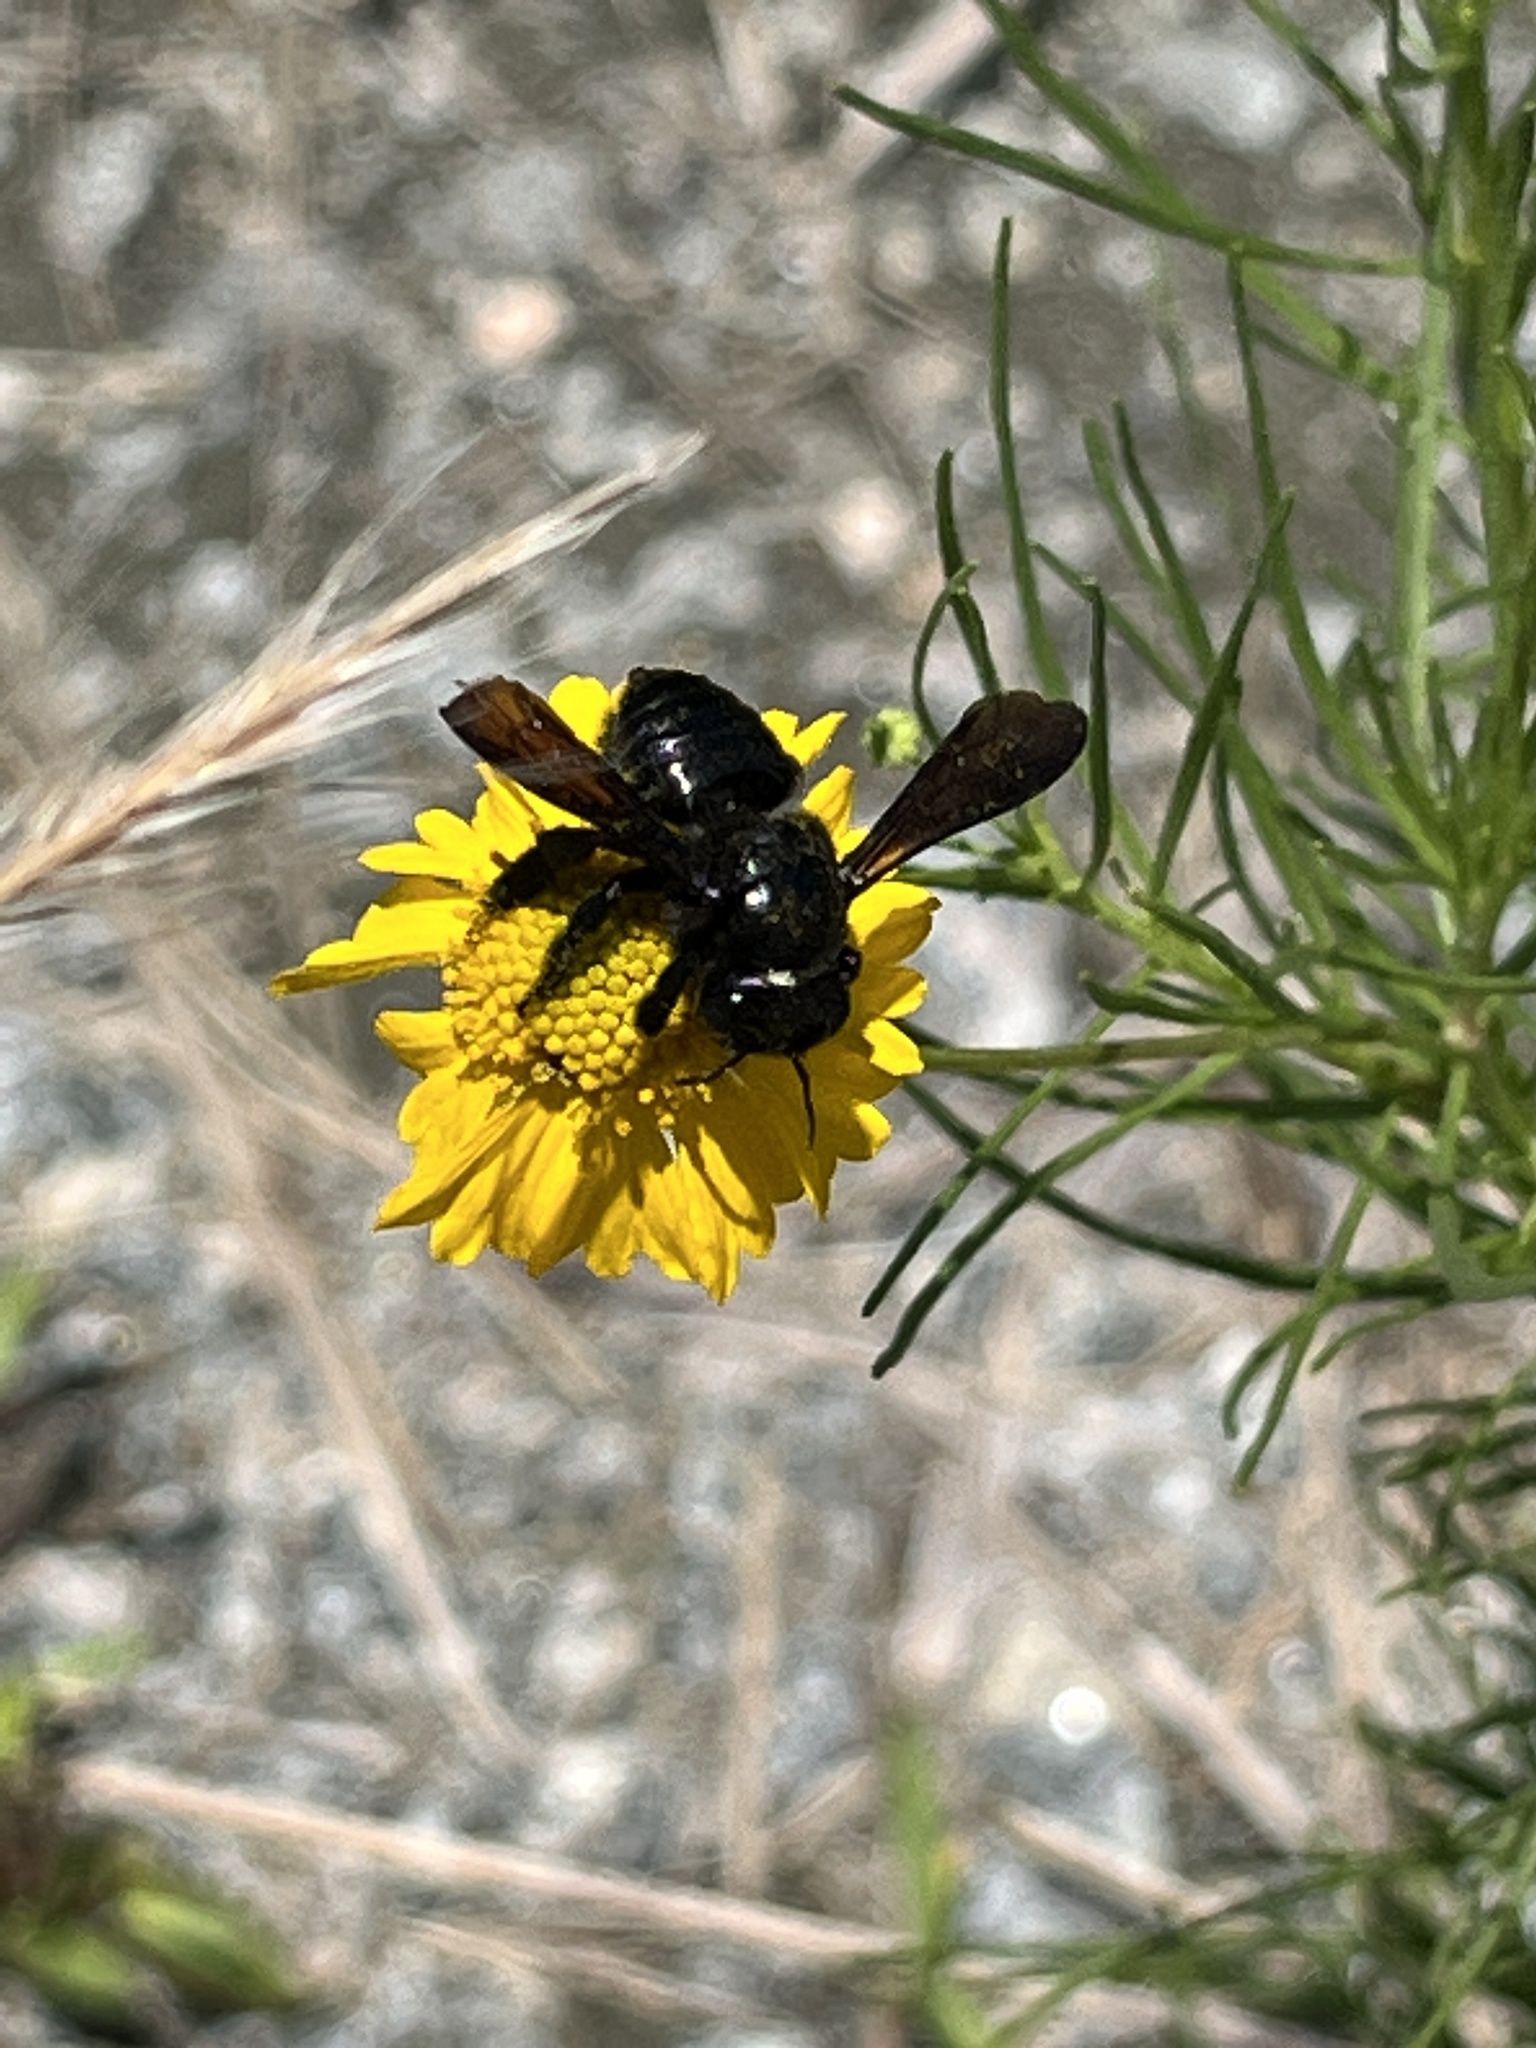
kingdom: Animalia
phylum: Arthropoda
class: Insecta
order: Hymenoptera
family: Megachilidae
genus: Megachile
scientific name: Megachile xylocopoides
